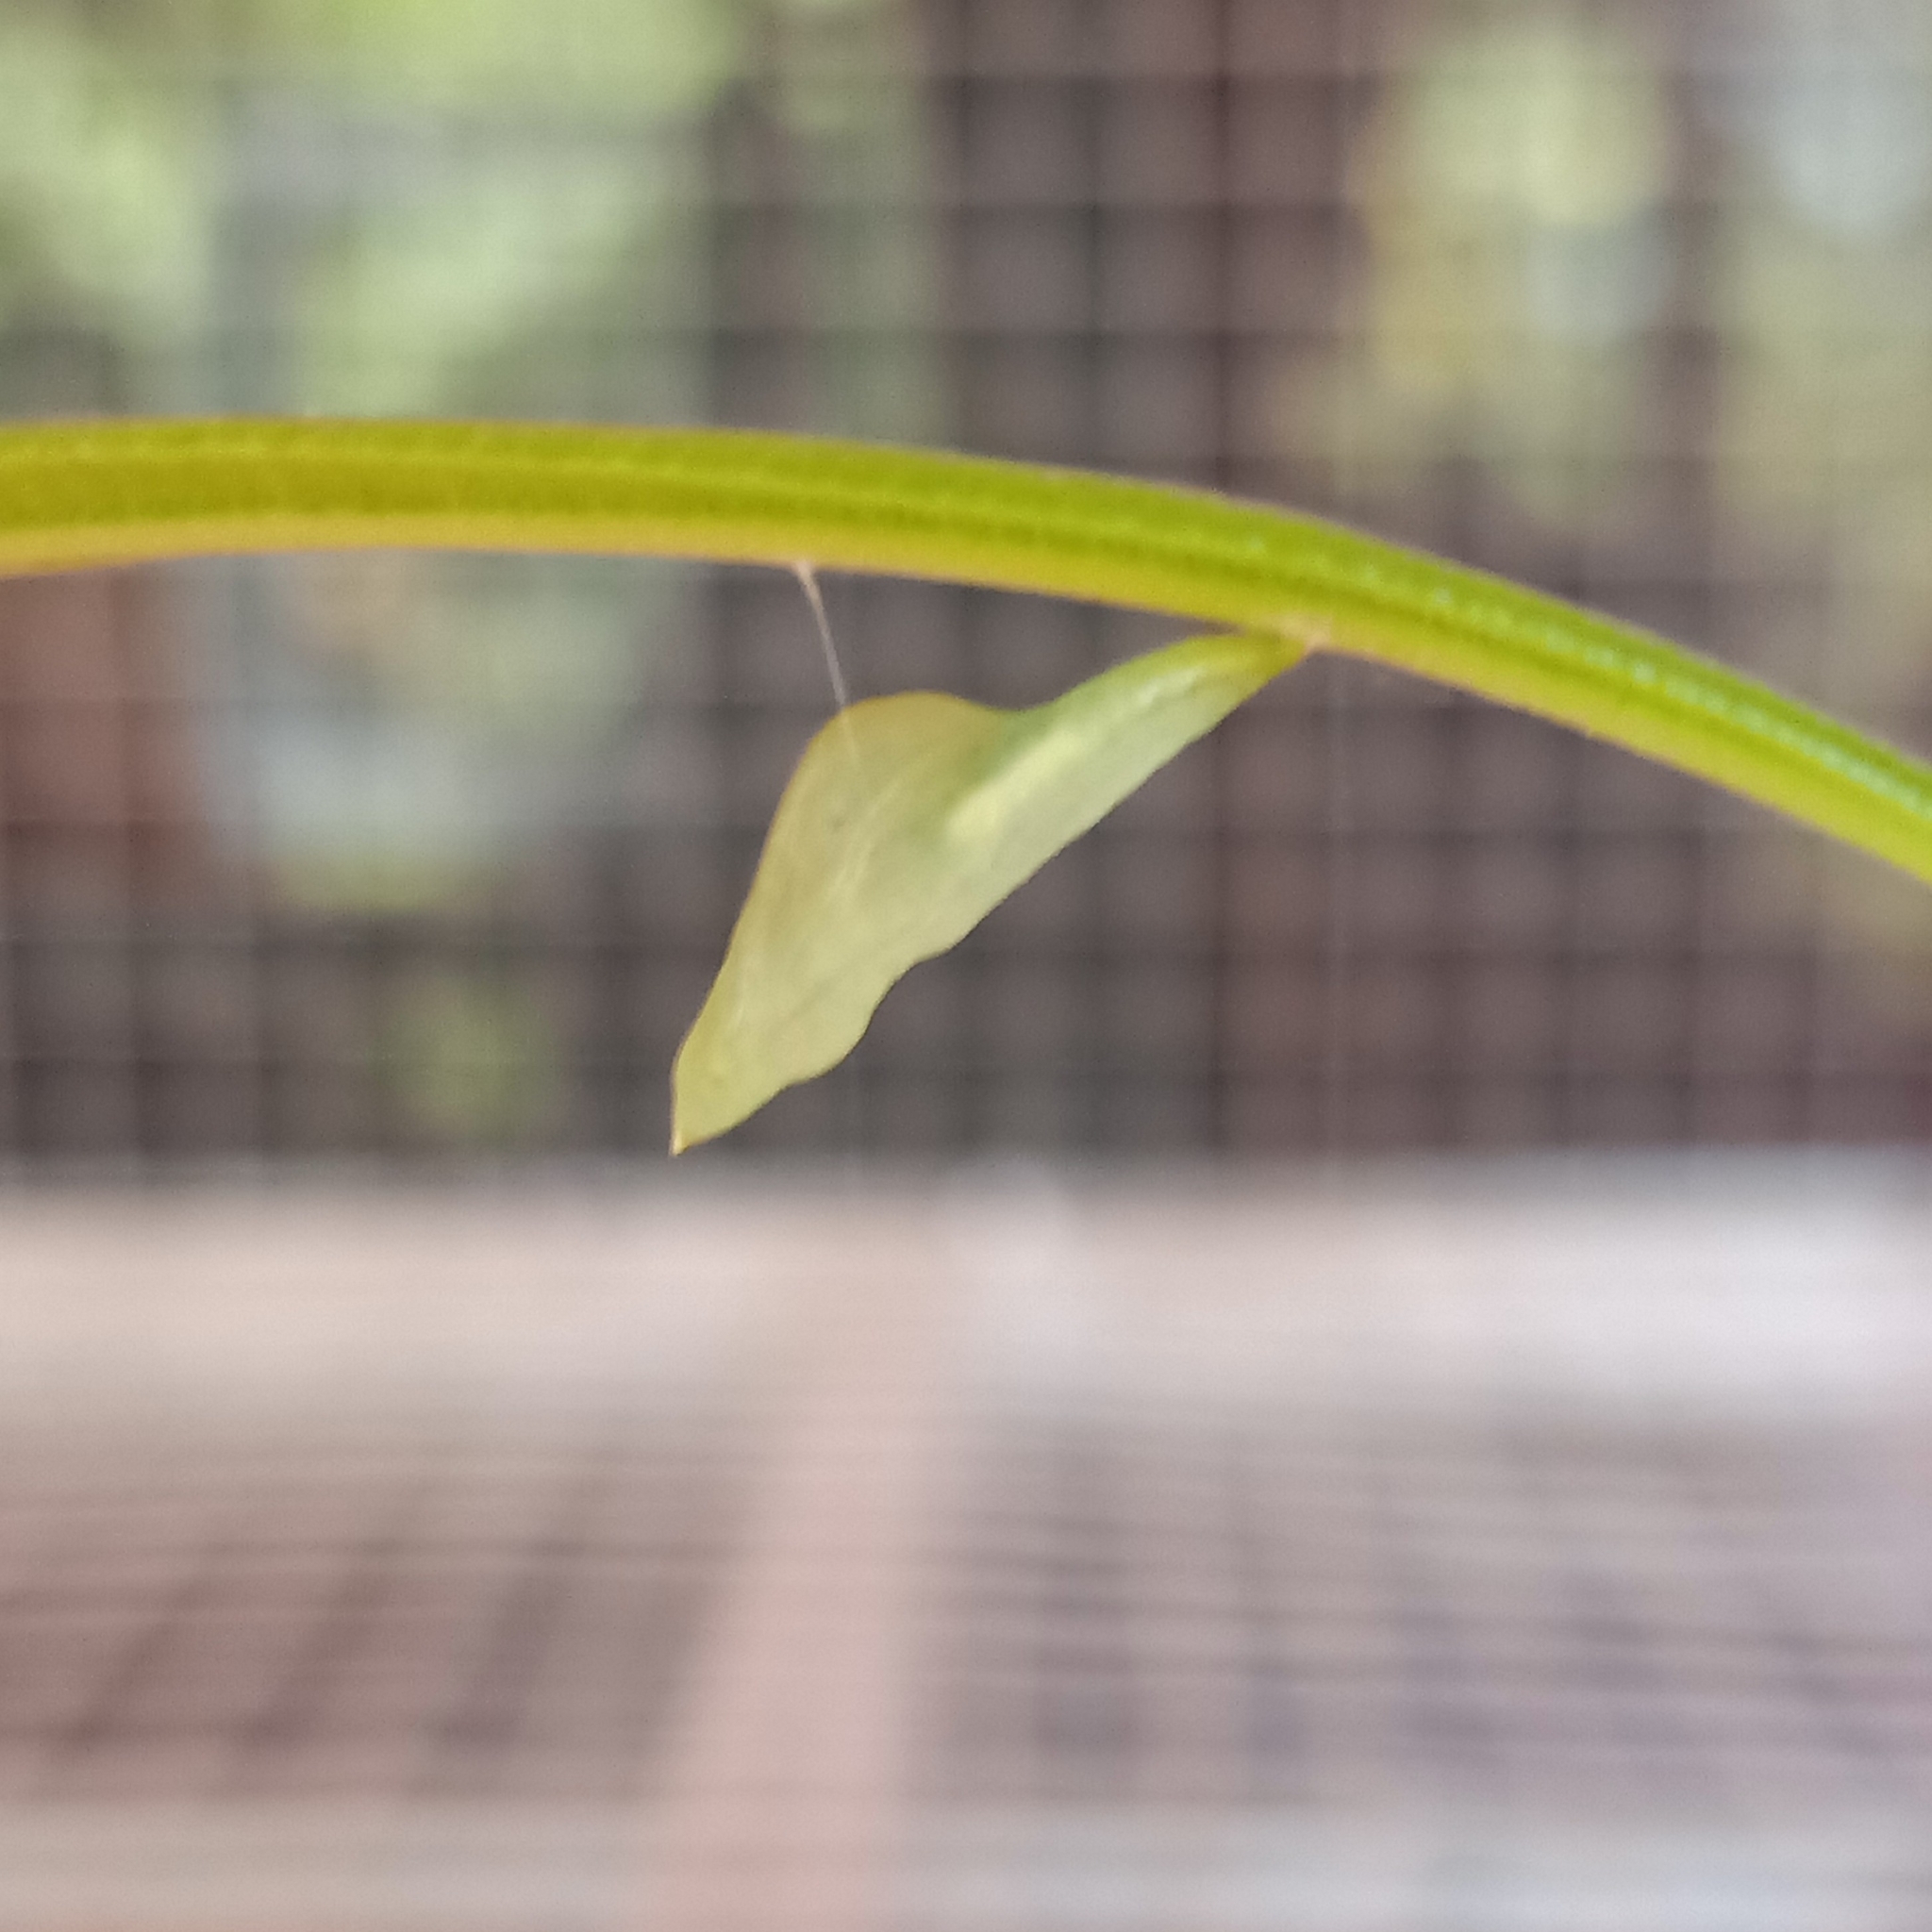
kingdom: Animalia
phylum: Arthropoda
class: Insecta
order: Lepidoptera
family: Pieridae
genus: Leptosia
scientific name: Leptosia nina
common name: Psyche
